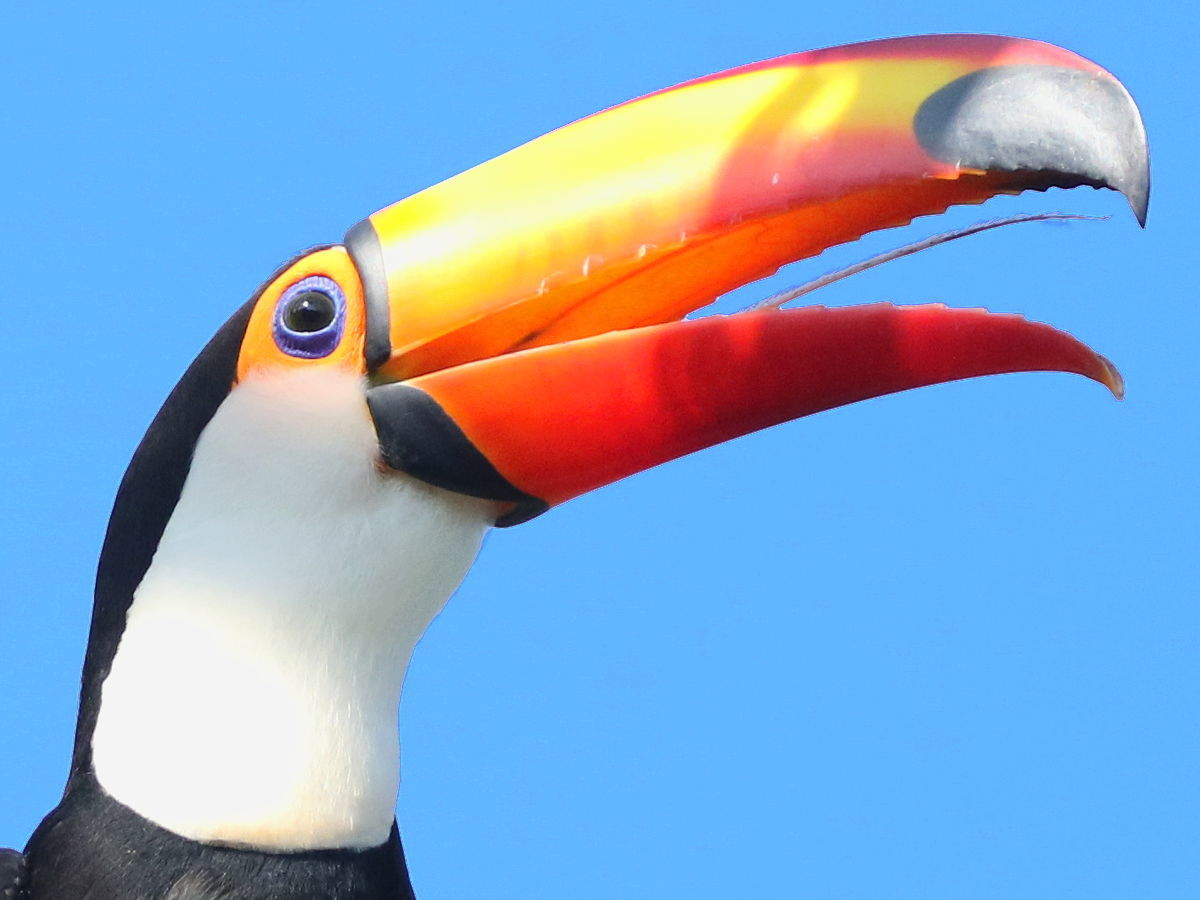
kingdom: Animalia
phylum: Chordata
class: Aves
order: Piciformes
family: Ramphastidae
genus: Ramphastos
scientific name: Ramphastos toco
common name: Toco toucan
